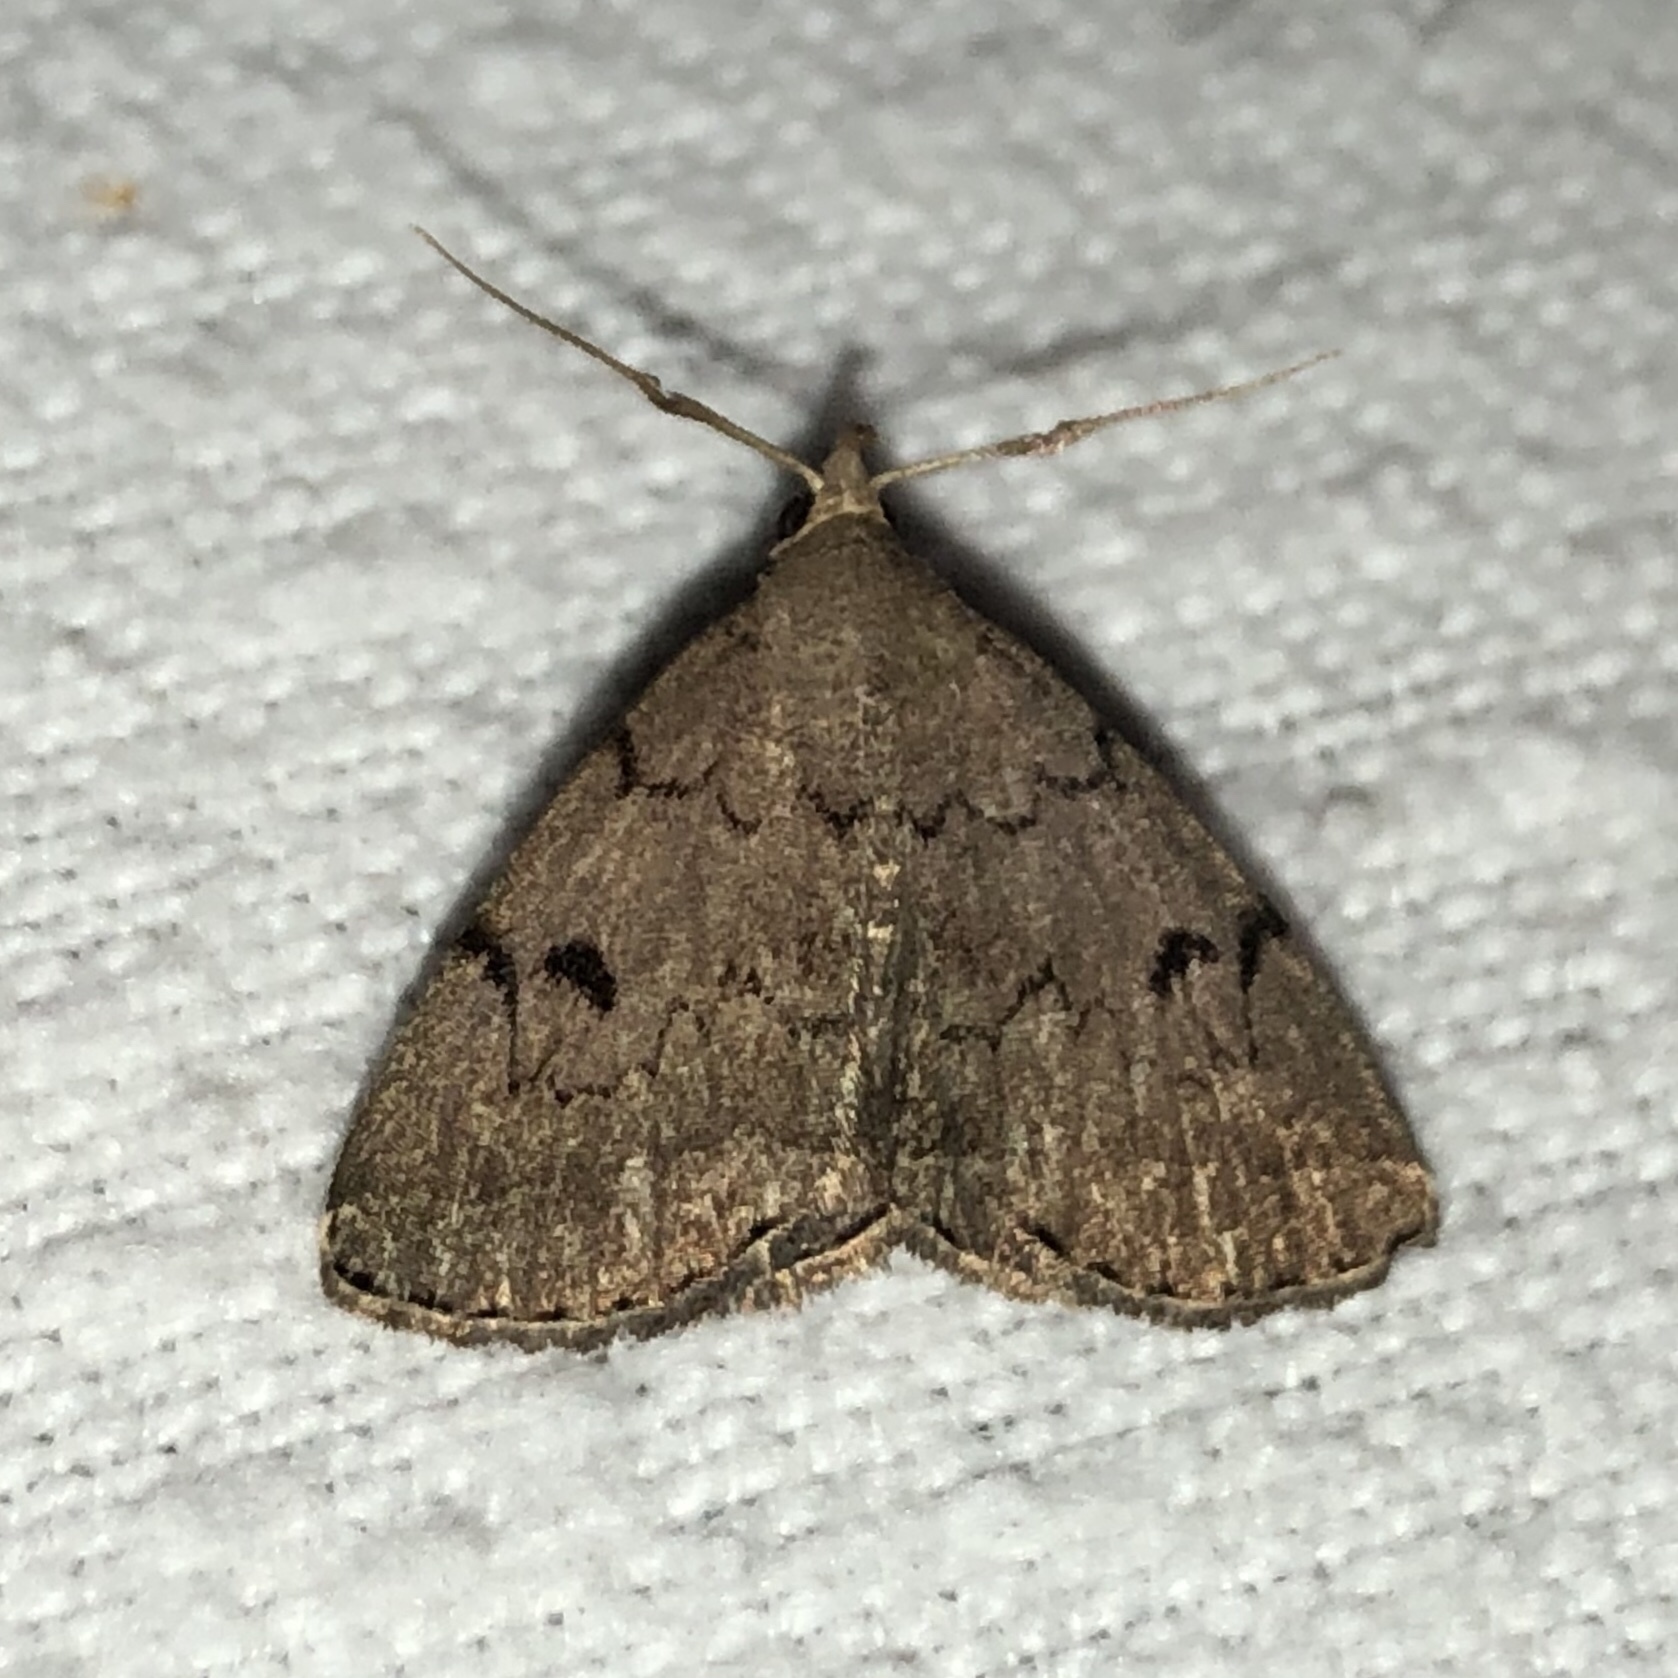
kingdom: Animalia
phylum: Arthropoda
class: Insecta
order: Lepidoptera
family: Erebidae
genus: Zanclognatha
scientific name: Zanclognatha dentata
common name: Toothed fan-foot
